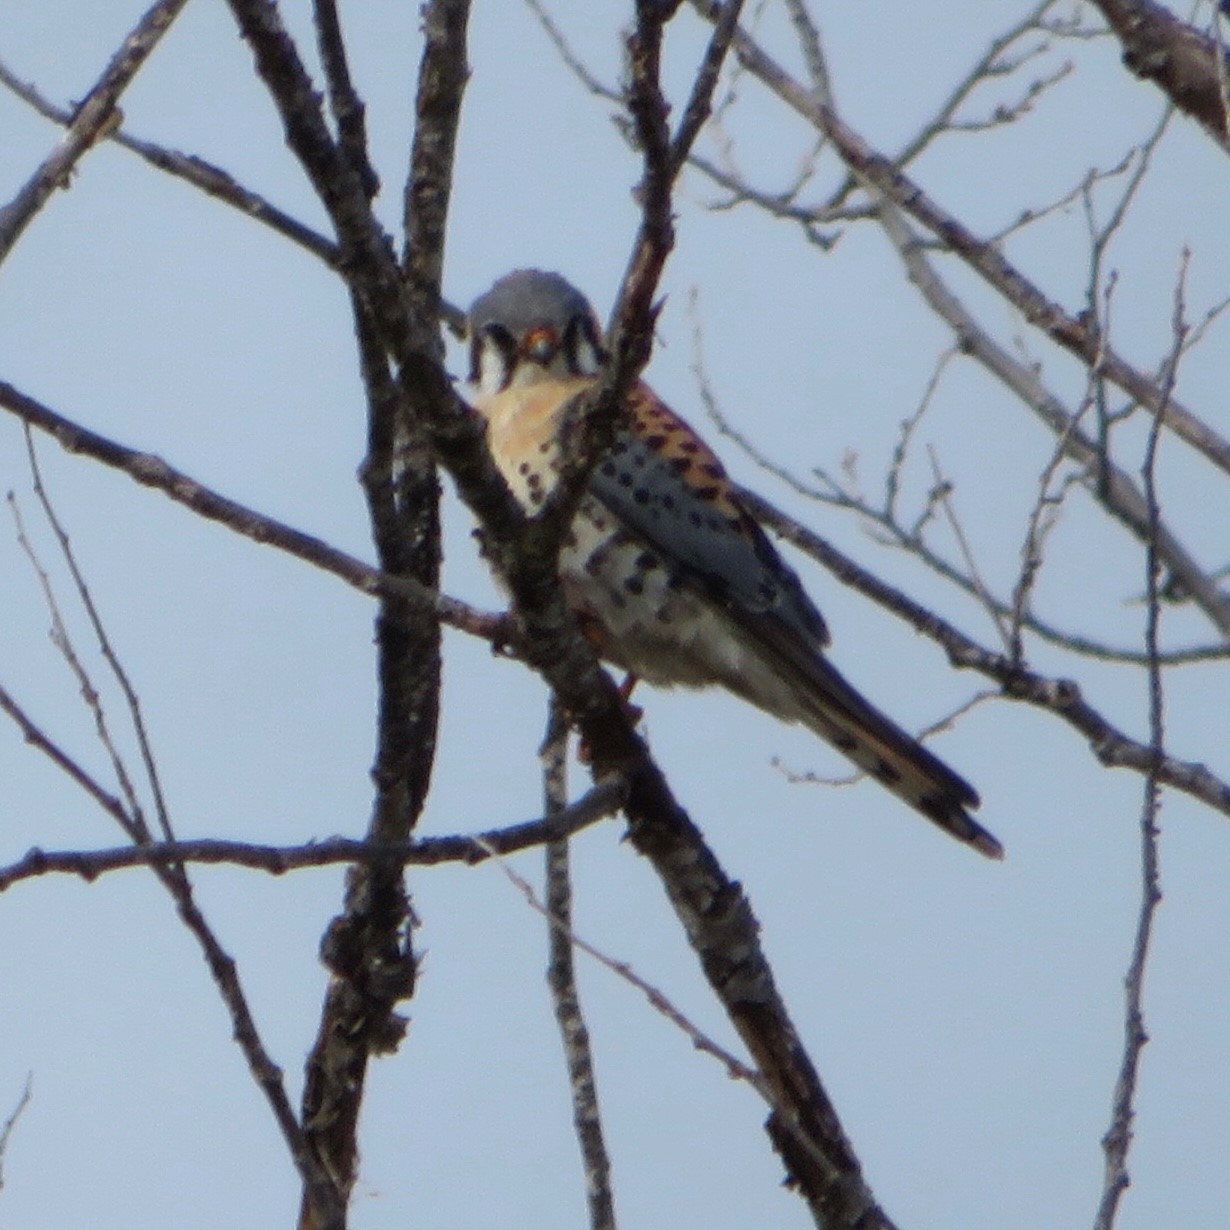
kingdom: Animalia
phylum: Chordata
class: Aves
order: Falconiformes
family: Falconidae
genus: Falco
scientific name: Falco sparverius
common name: American kestrel
